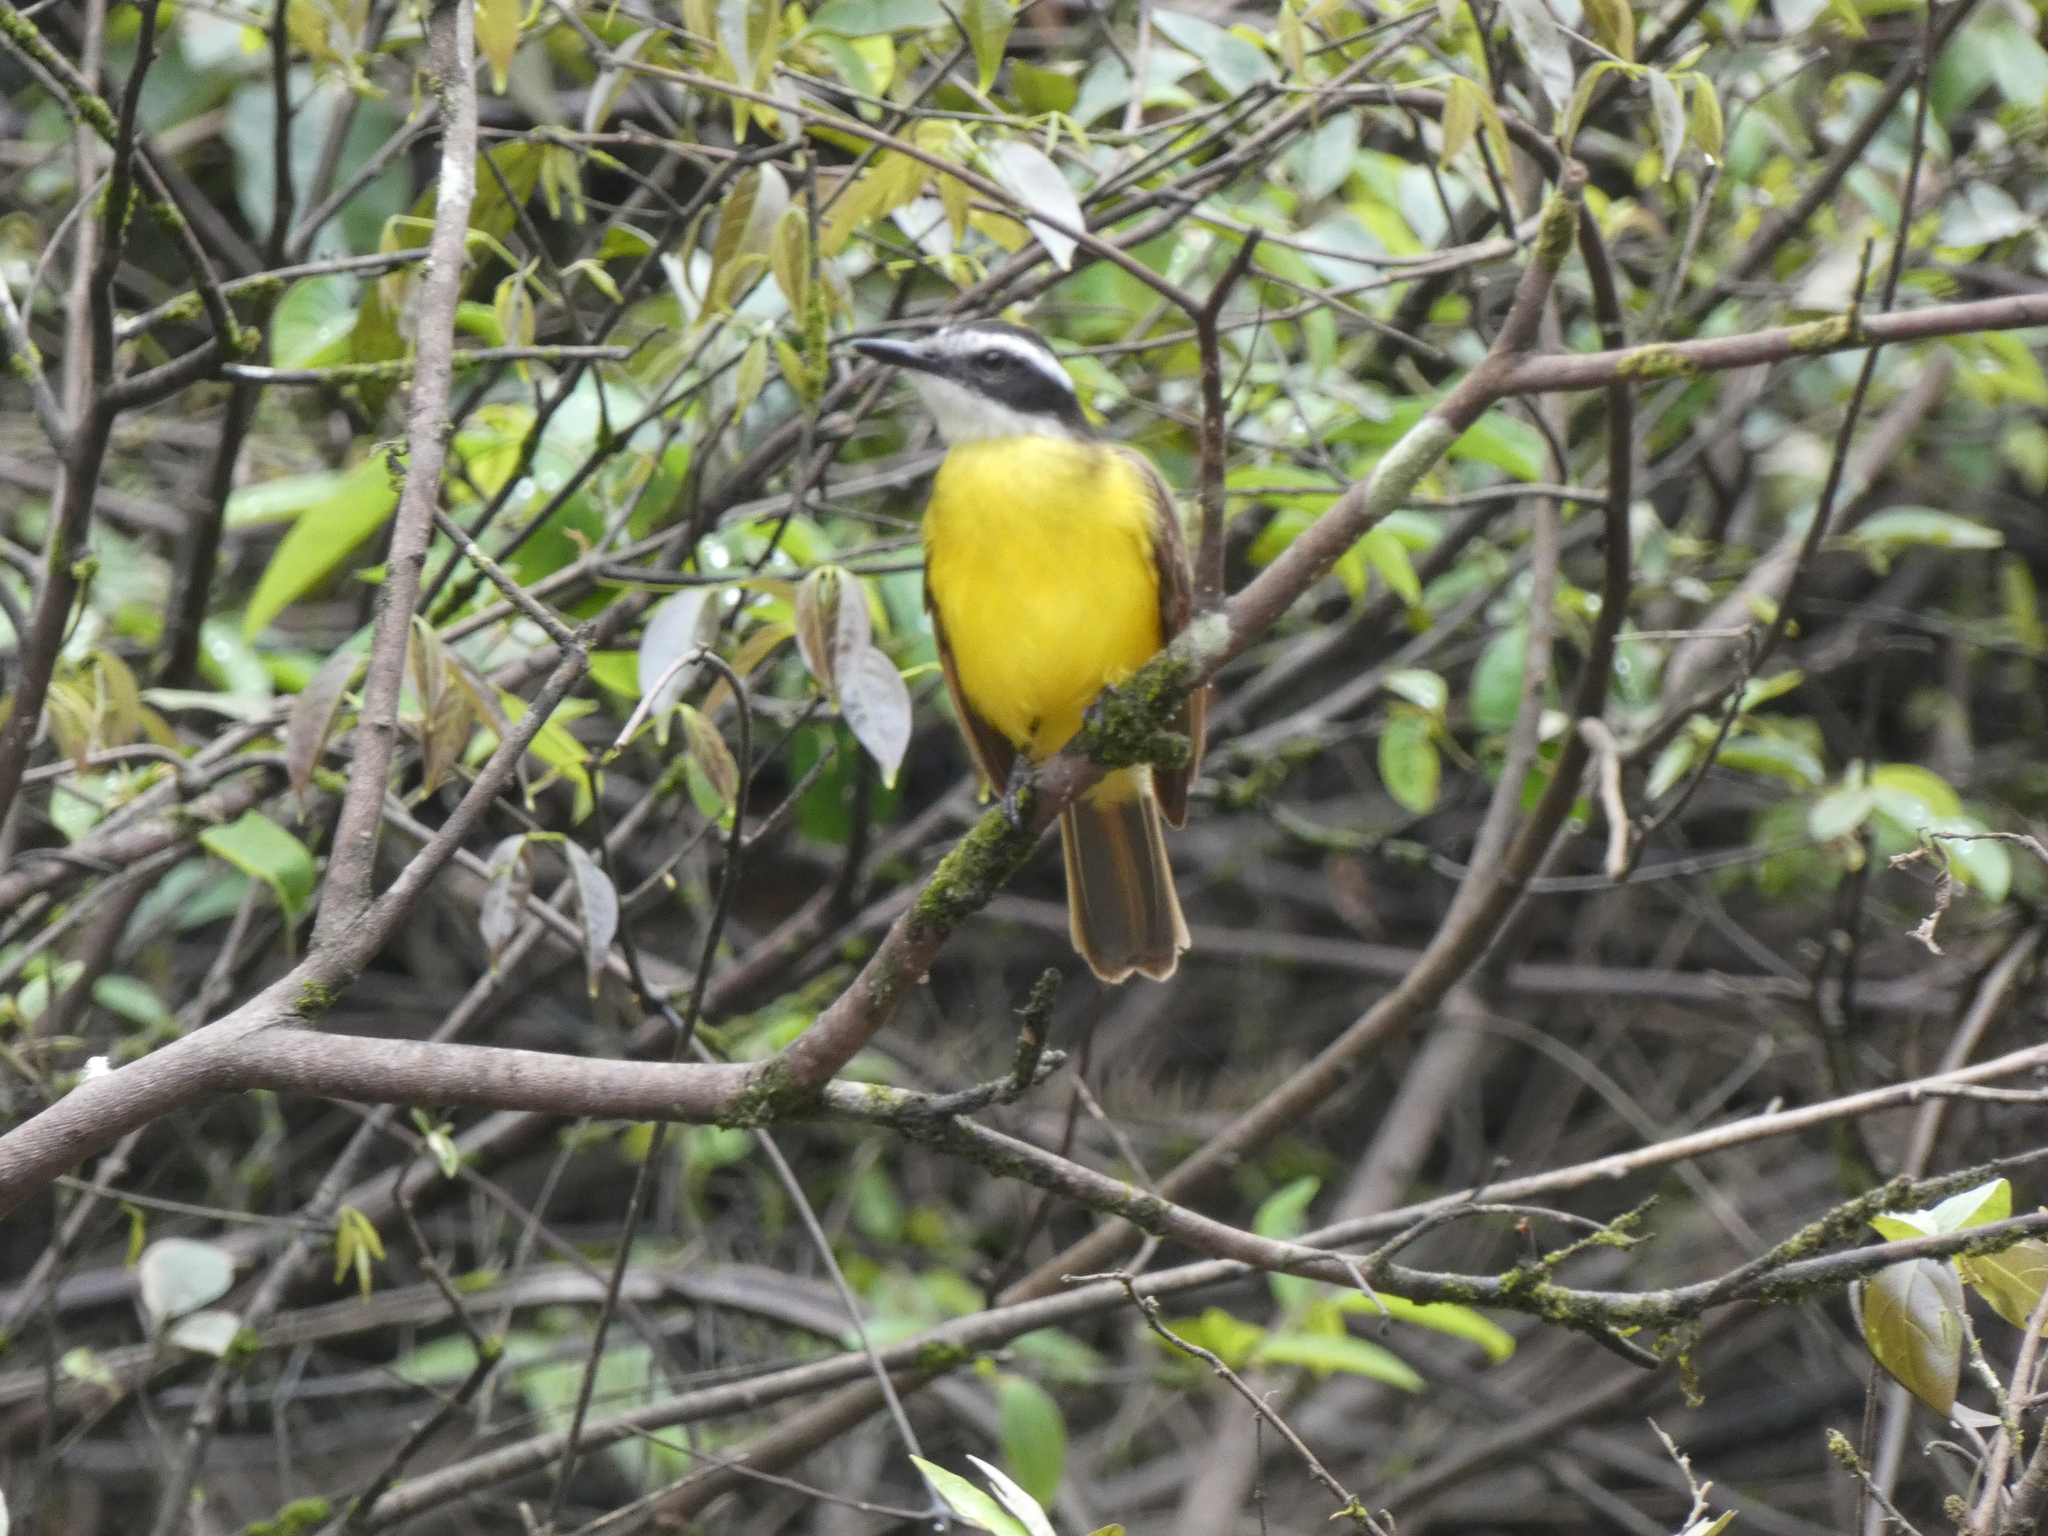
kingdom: Animalia
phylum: Chordata
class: Aves
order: Passeriformes
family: Tyrannidae
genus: Pitangus
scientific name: Pitangus lictor
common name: Lesser kiskadee
